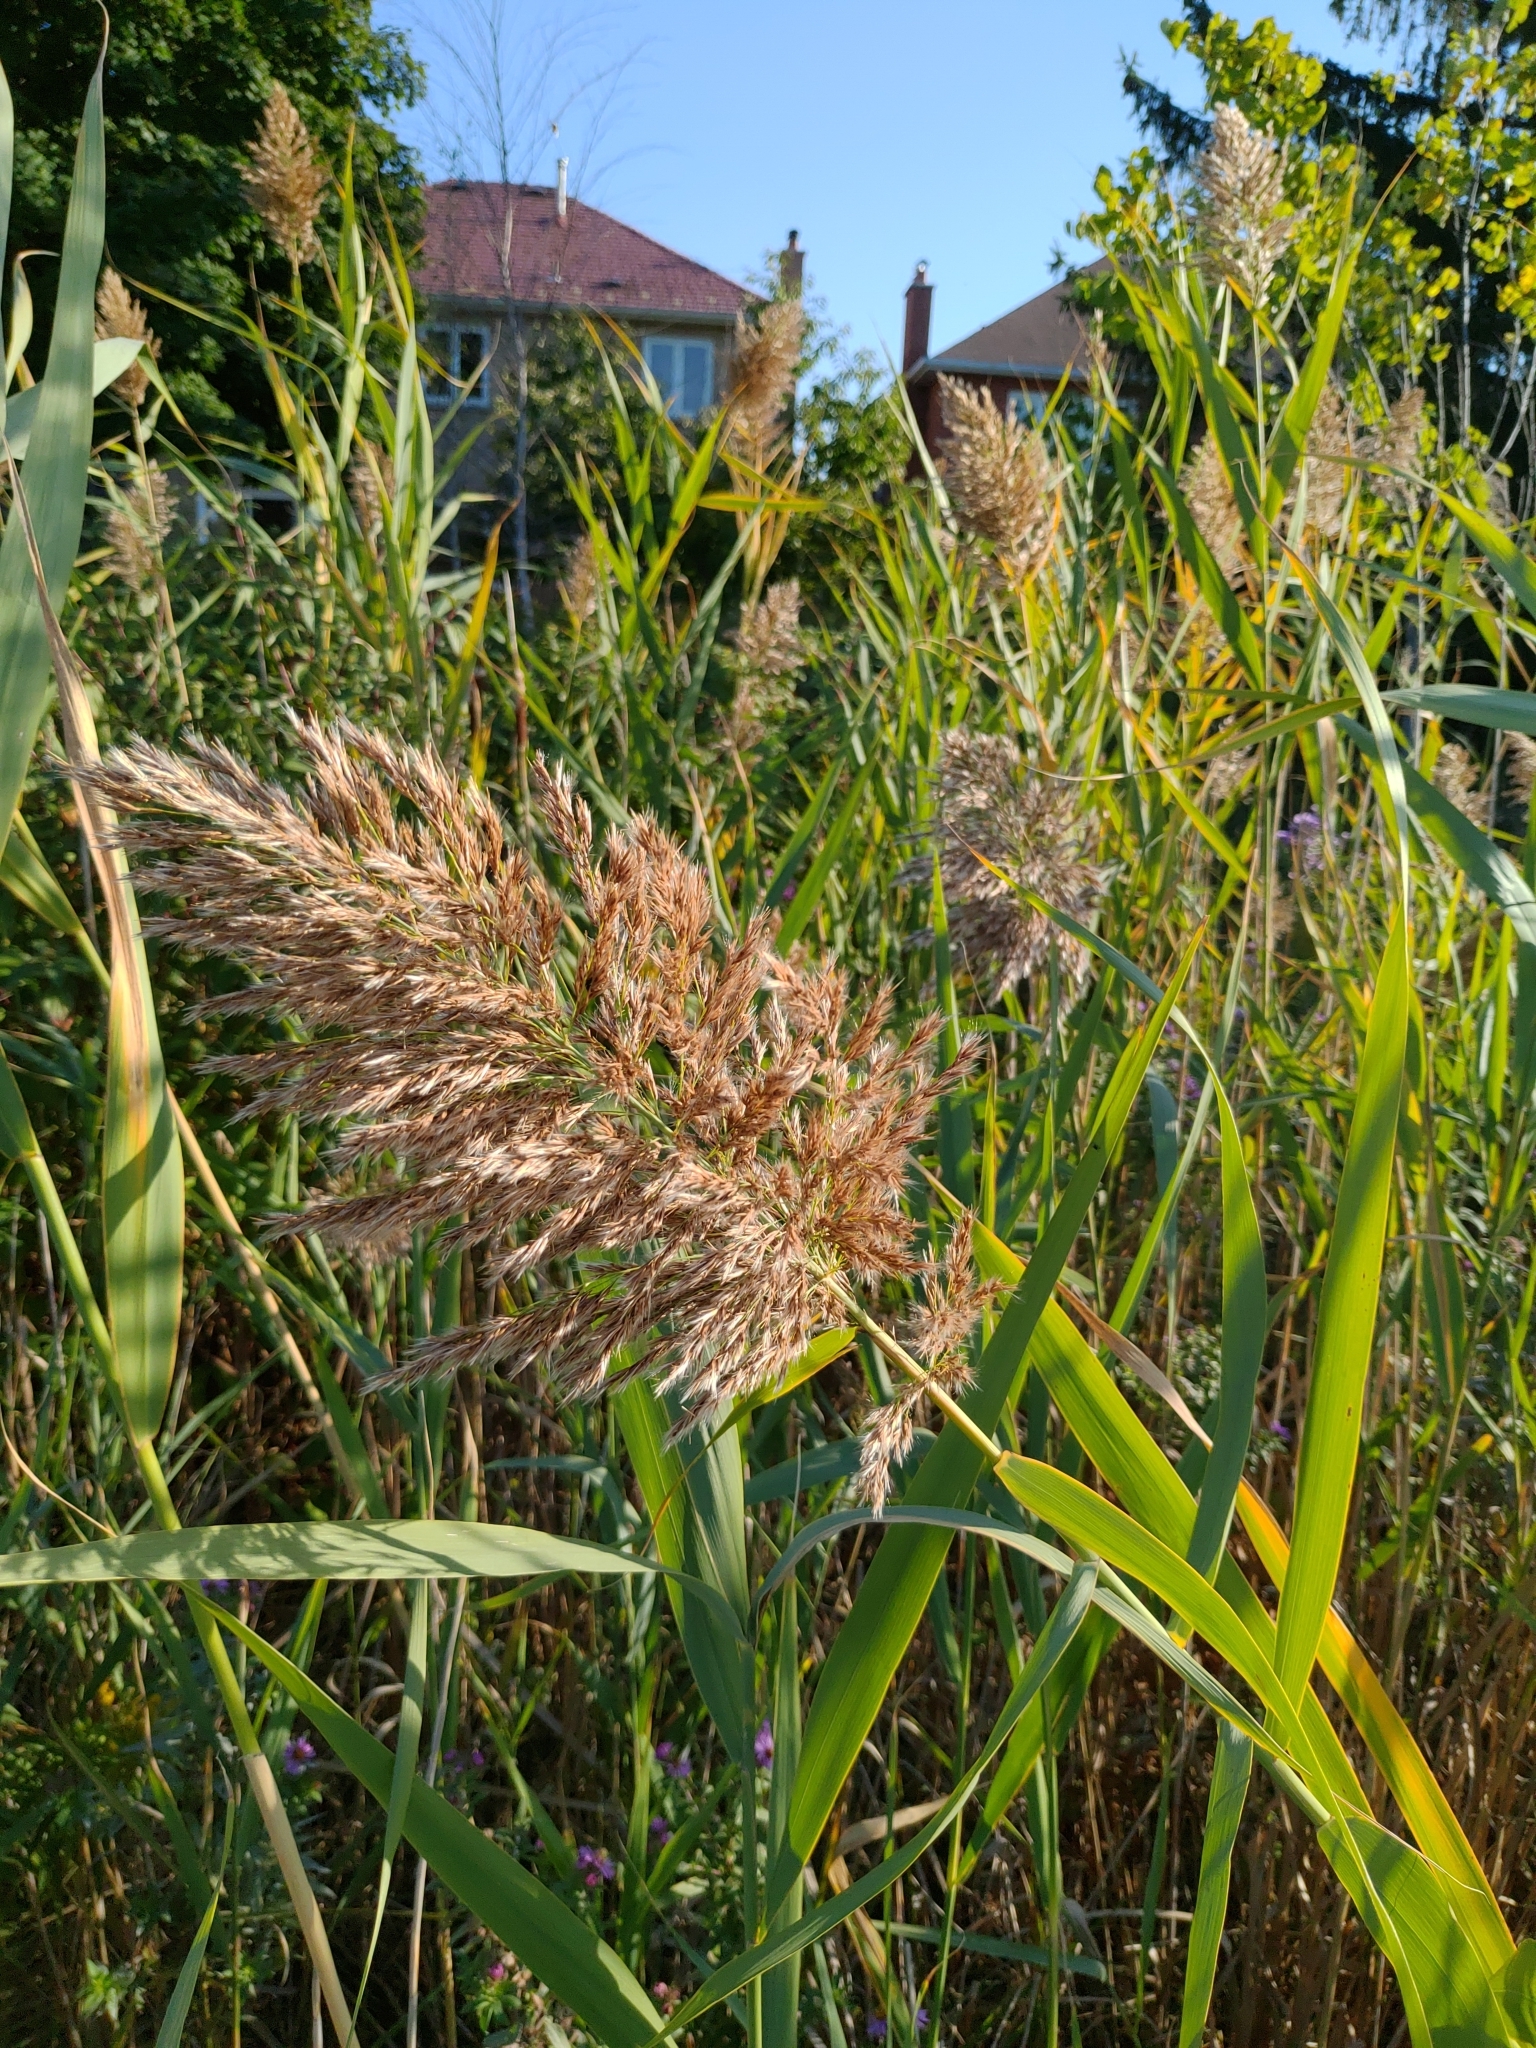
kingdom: Plantae
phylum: Tracheophyta
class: Liliopsida
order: Poales
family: Poaceae
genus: Phragmites
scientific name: Phragmites australis
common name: Common reed
